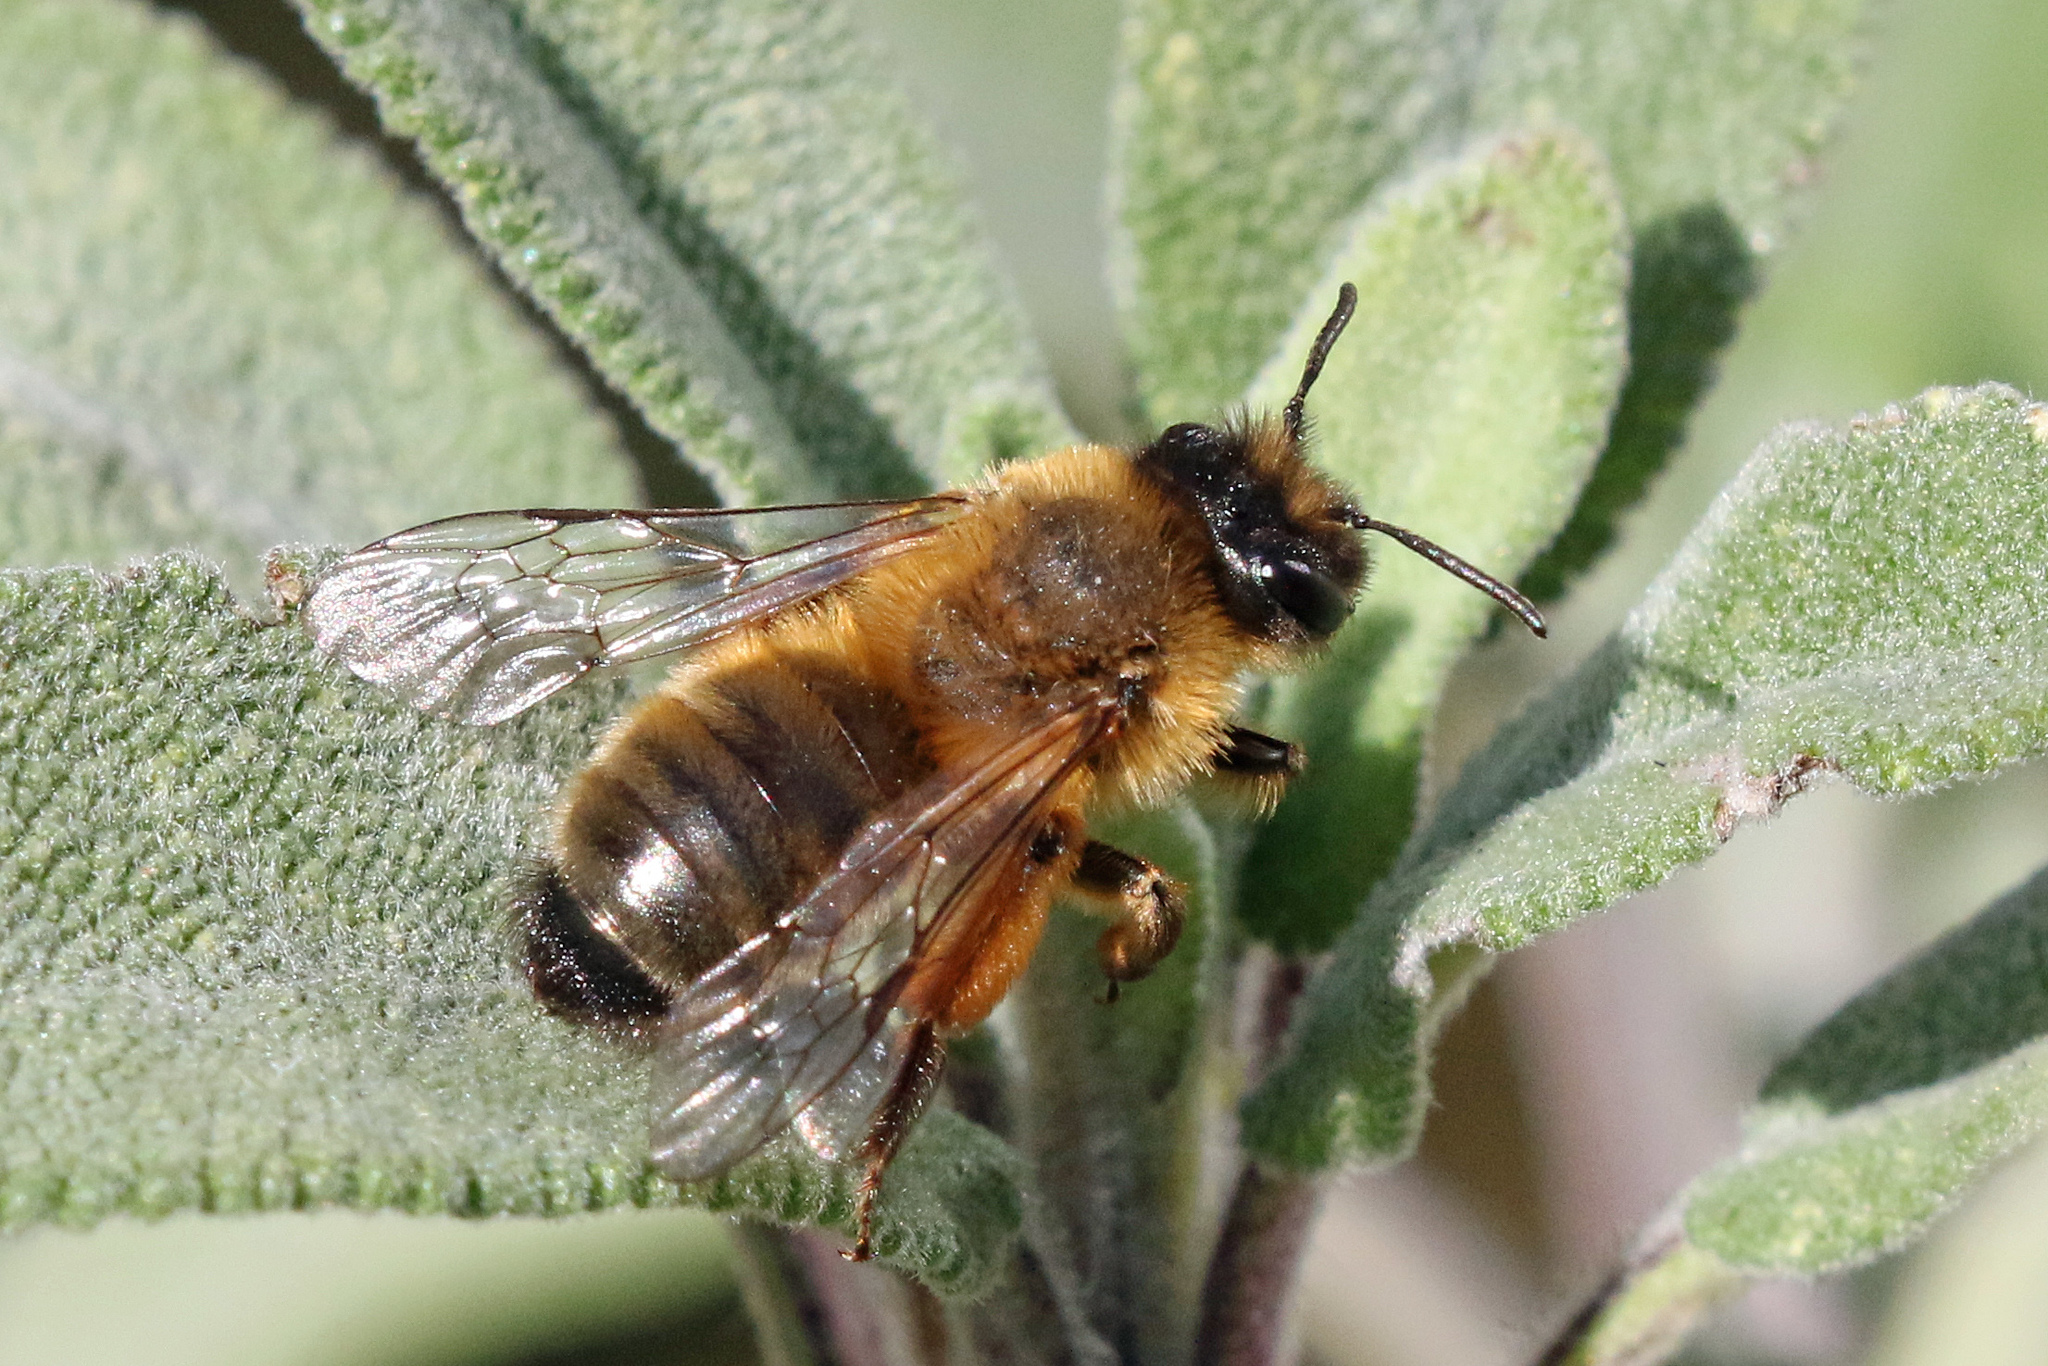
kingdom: Animalia
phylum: Arthropoda
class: Insecta
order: Hymenoptera
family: Andrenidae
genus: Andrena
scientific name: Andrena nigroaenea
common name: Buffish mining bee
